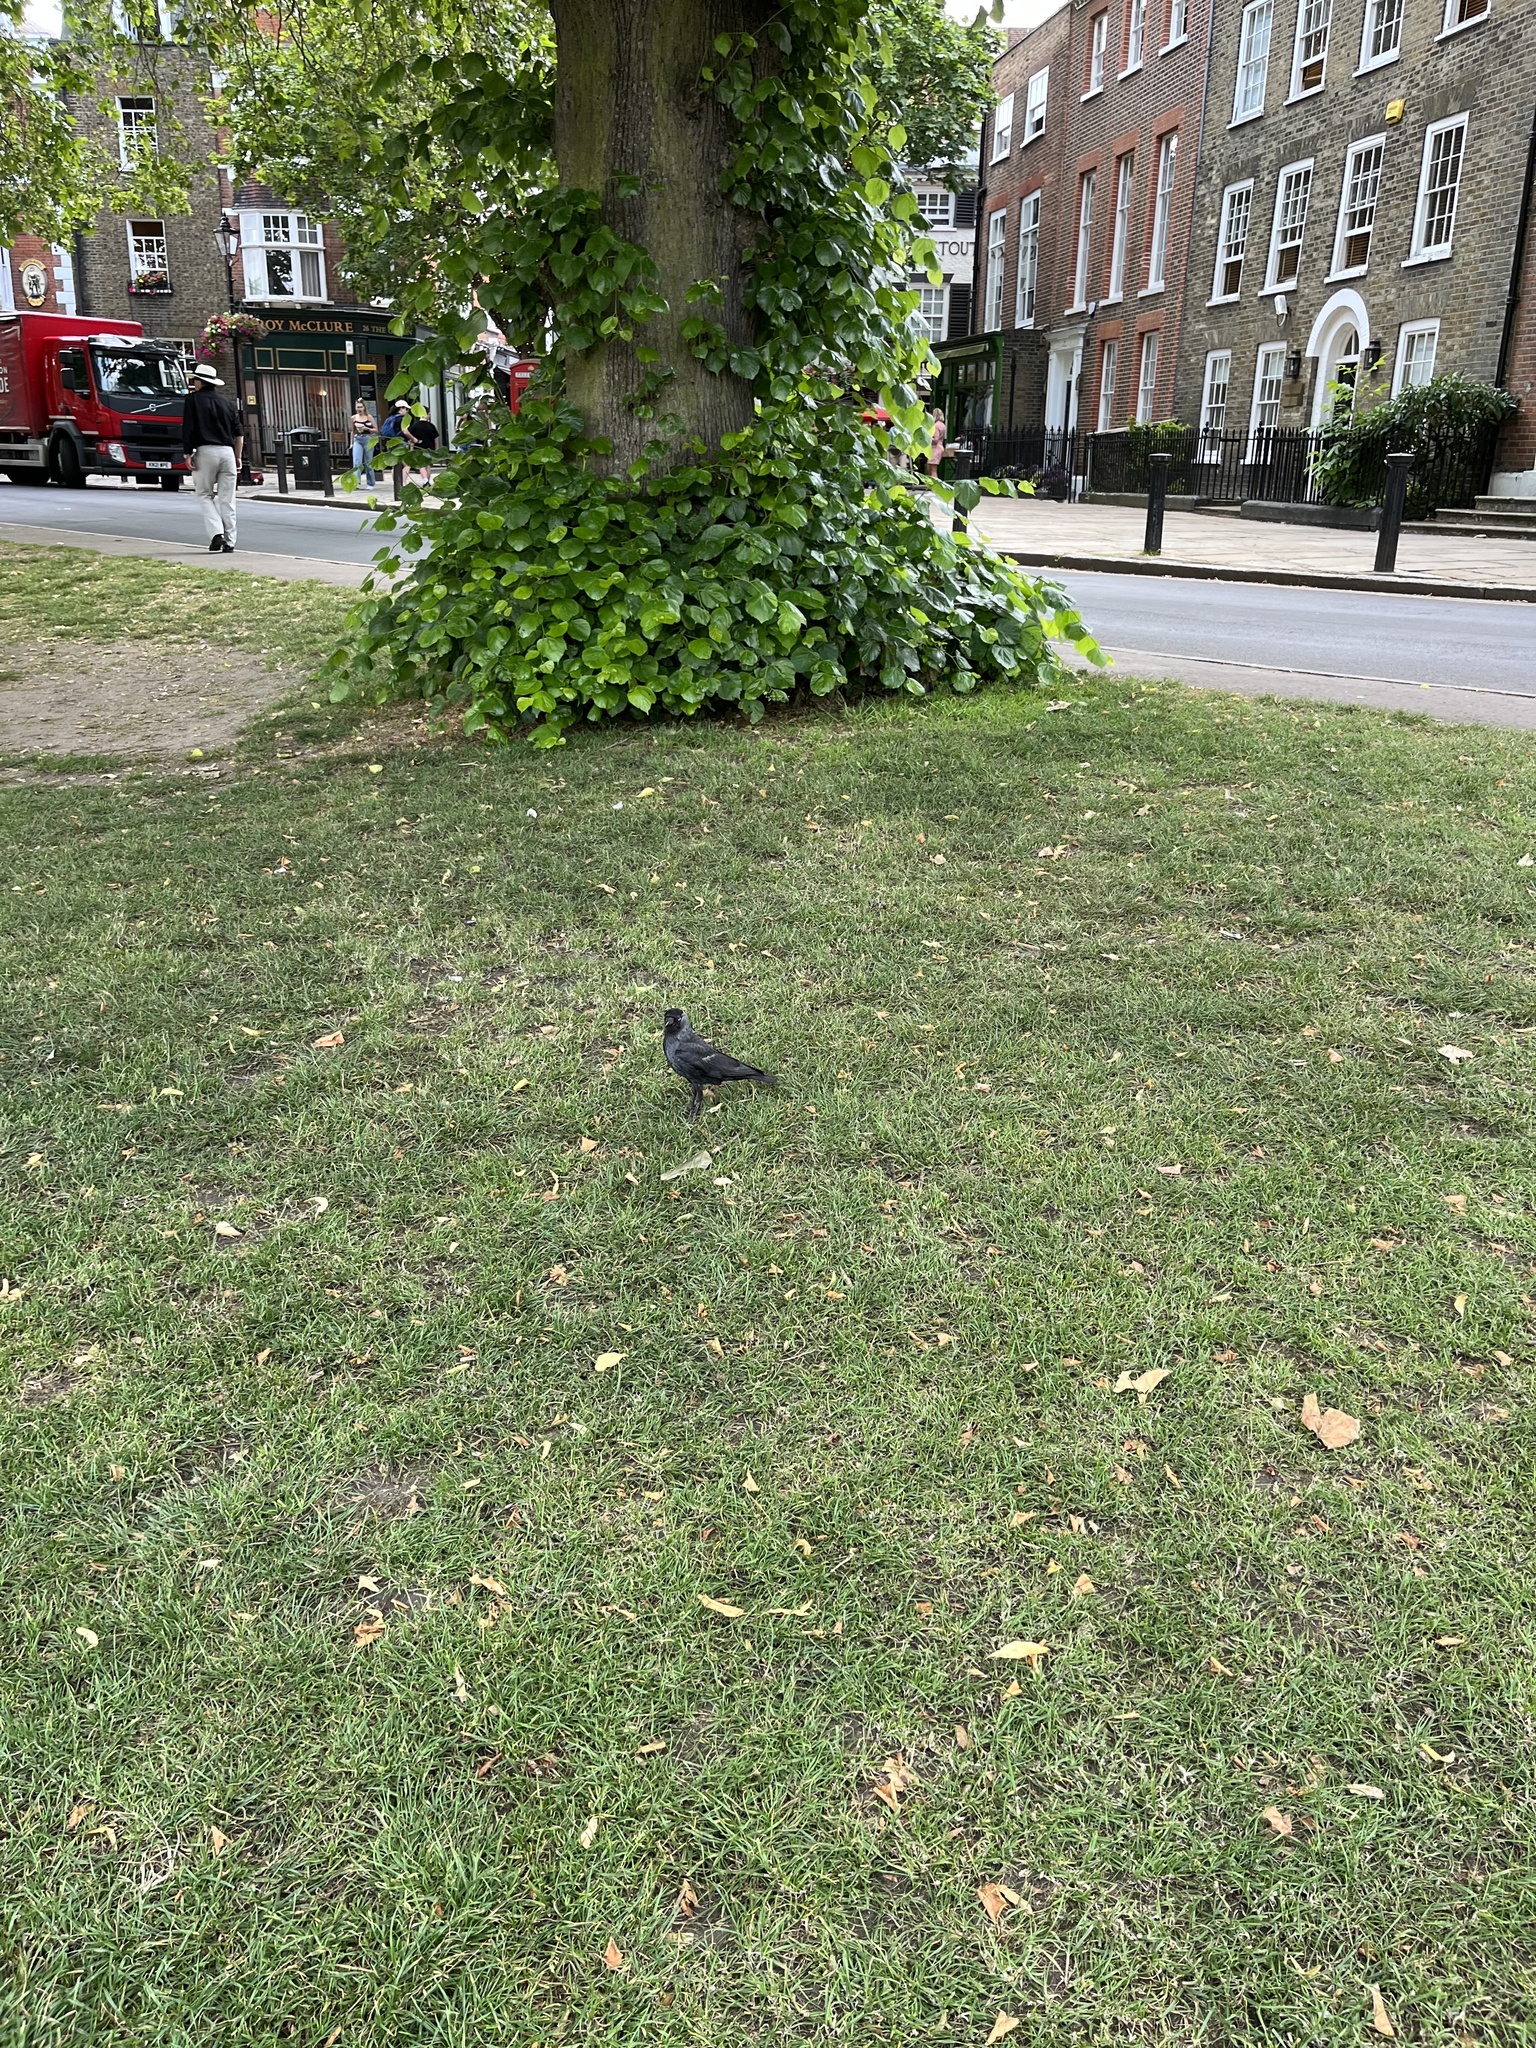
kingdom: Animalia
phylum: Chordata
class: Aves
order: Passeriformes
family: Corvidae
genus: Coloeus
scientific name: Coloeus monedula
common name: Western jackdaw
